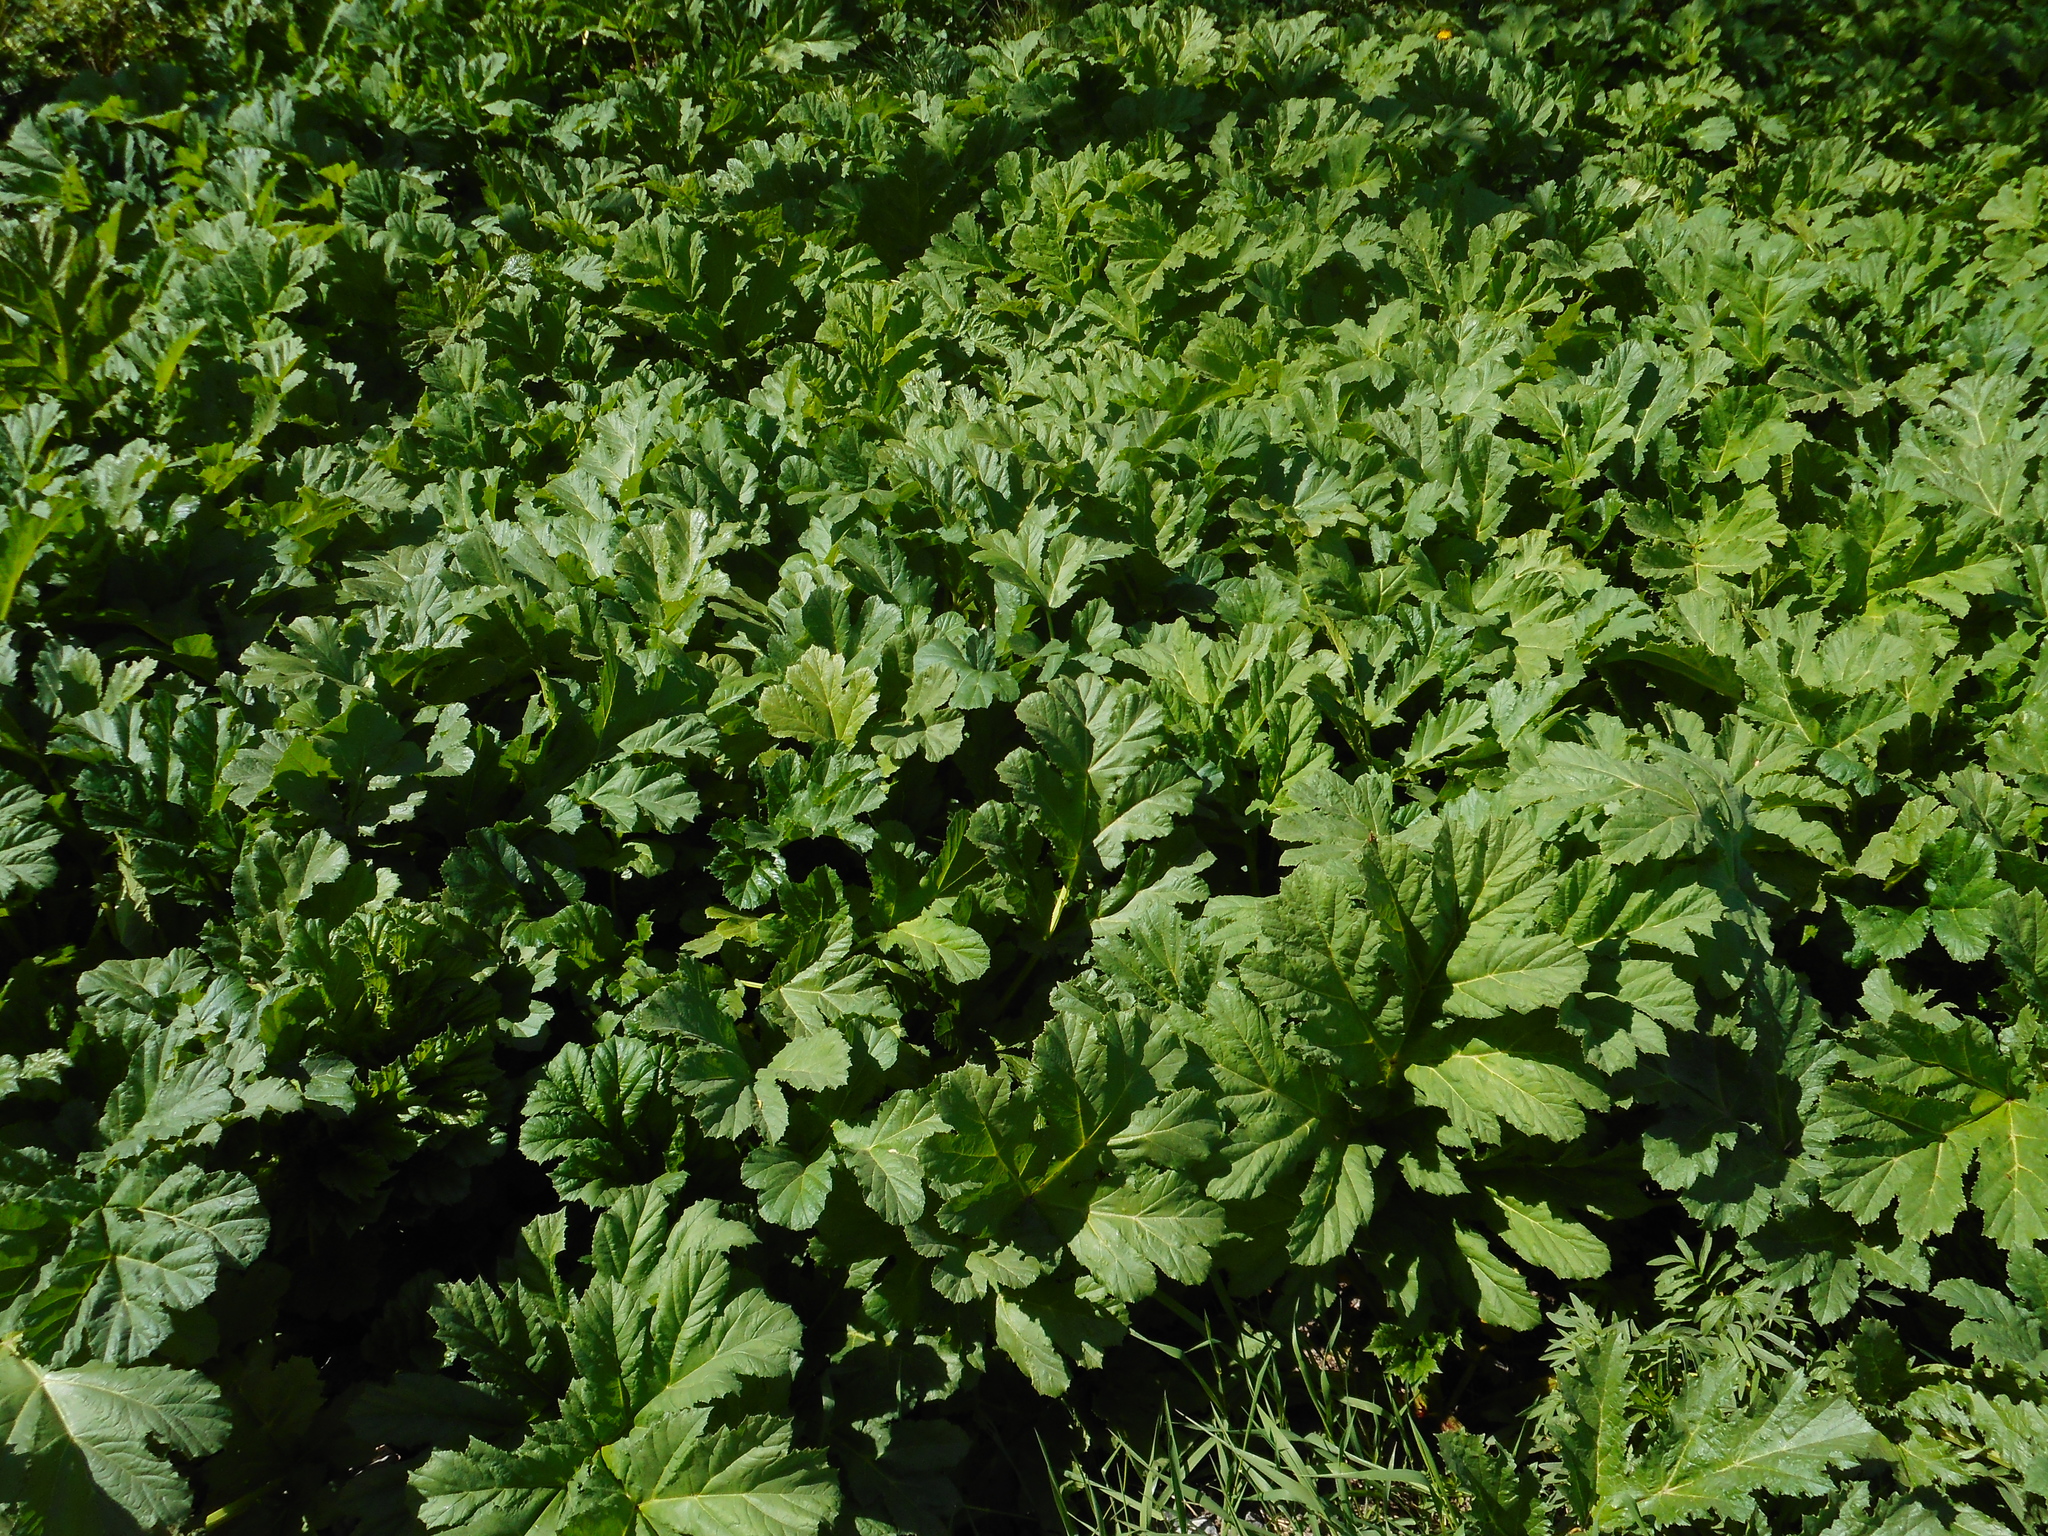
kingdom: Plantae
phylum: Tracheophyta
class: Magnoliopsida
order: Apiales
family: Apiaceae
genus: Heracleum
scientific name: Heracleum sosnowskyi
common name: Sosnowsky's hogweed
